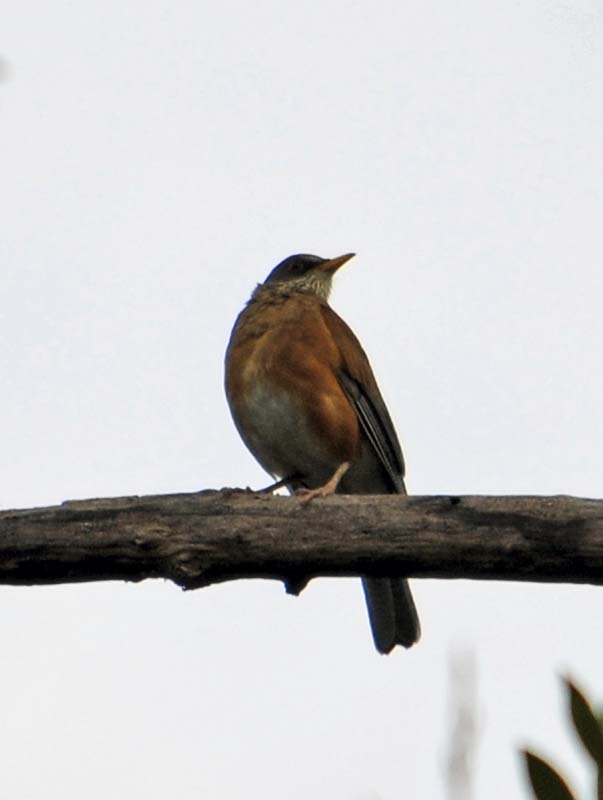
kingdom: Animalia
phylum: Chordata
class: Aves
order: Passeriformes
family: Turdidae
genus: Turdus
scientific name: Turdus rufopalliatus
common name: Rufous-backed robin
